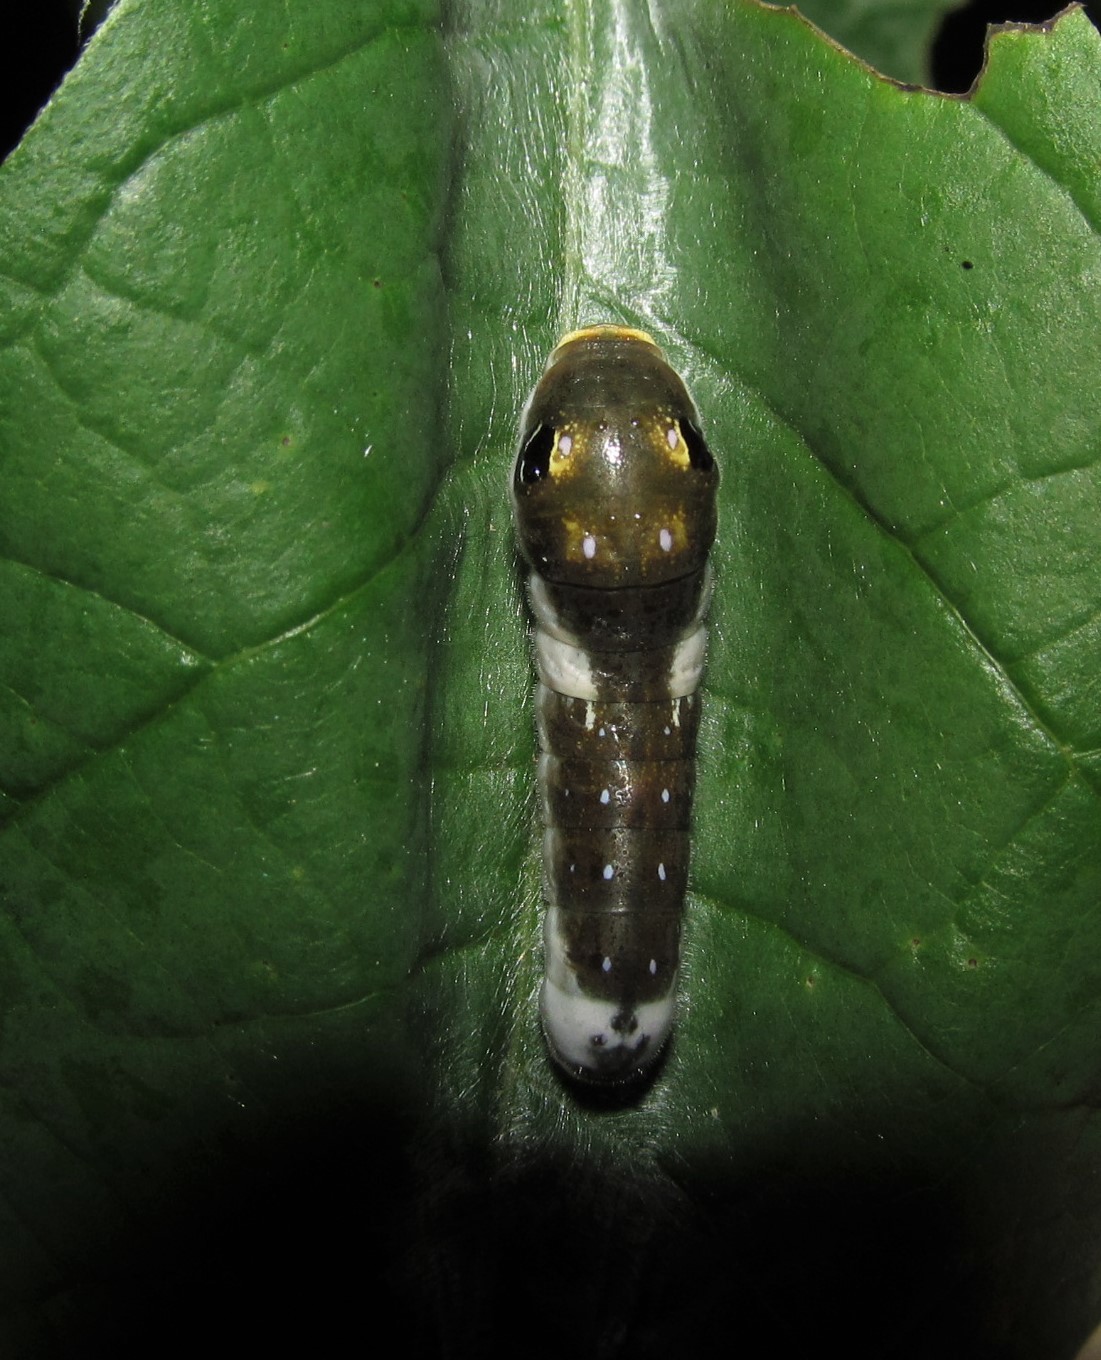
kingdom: Animalia
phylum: Arthropoda
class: Insecta
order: Lepidoptera
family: Papilionidae
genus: Papilio
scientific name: Papilio troilus
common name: Spicebush swallowtail
